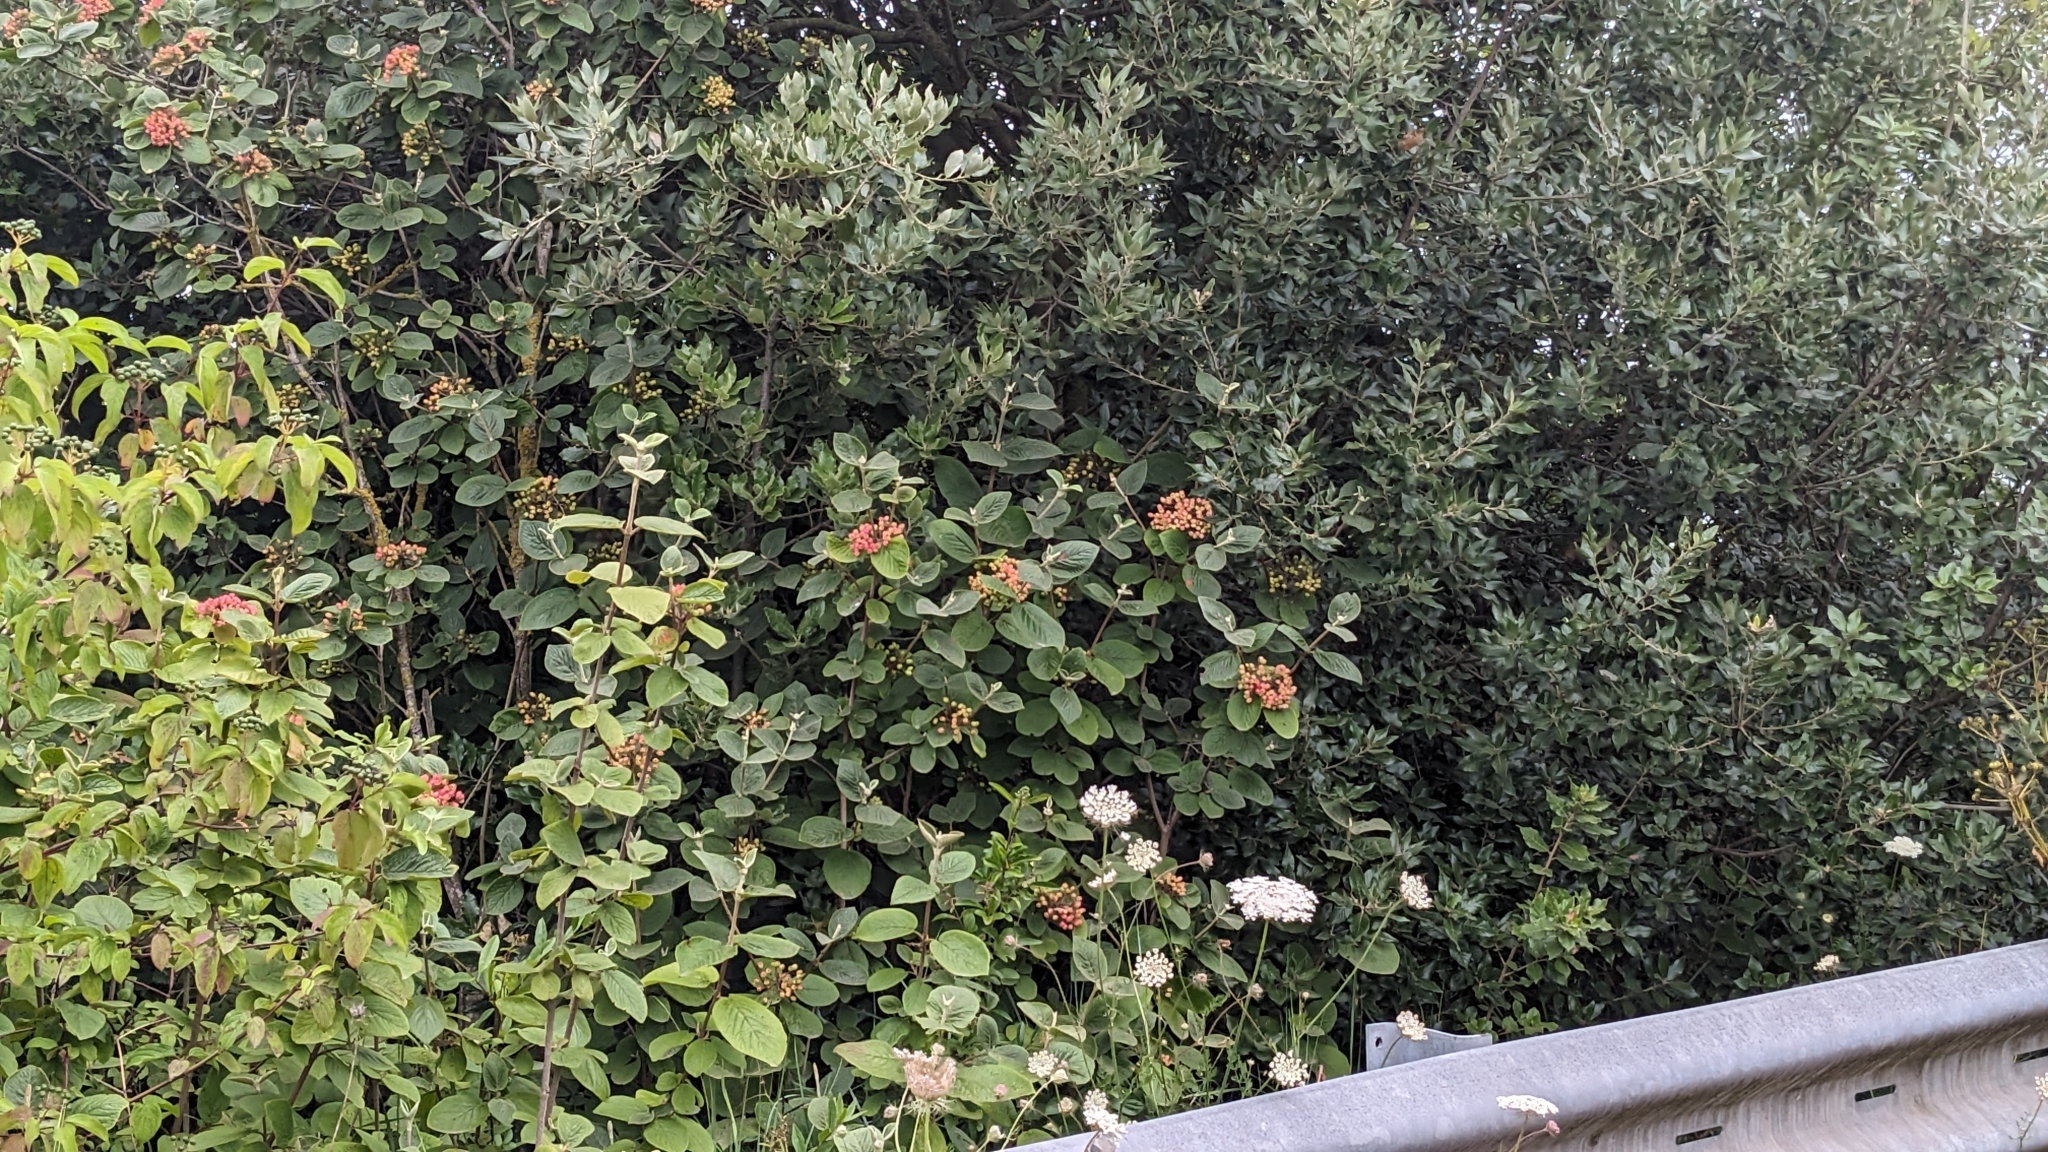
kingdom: Plantae
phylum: Tracheophyta
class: Magnoliopsida
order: Dipsacales
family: Viburnaceae
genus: Viburnum
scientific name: Viburnum lantana
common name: Wayfaring tree
